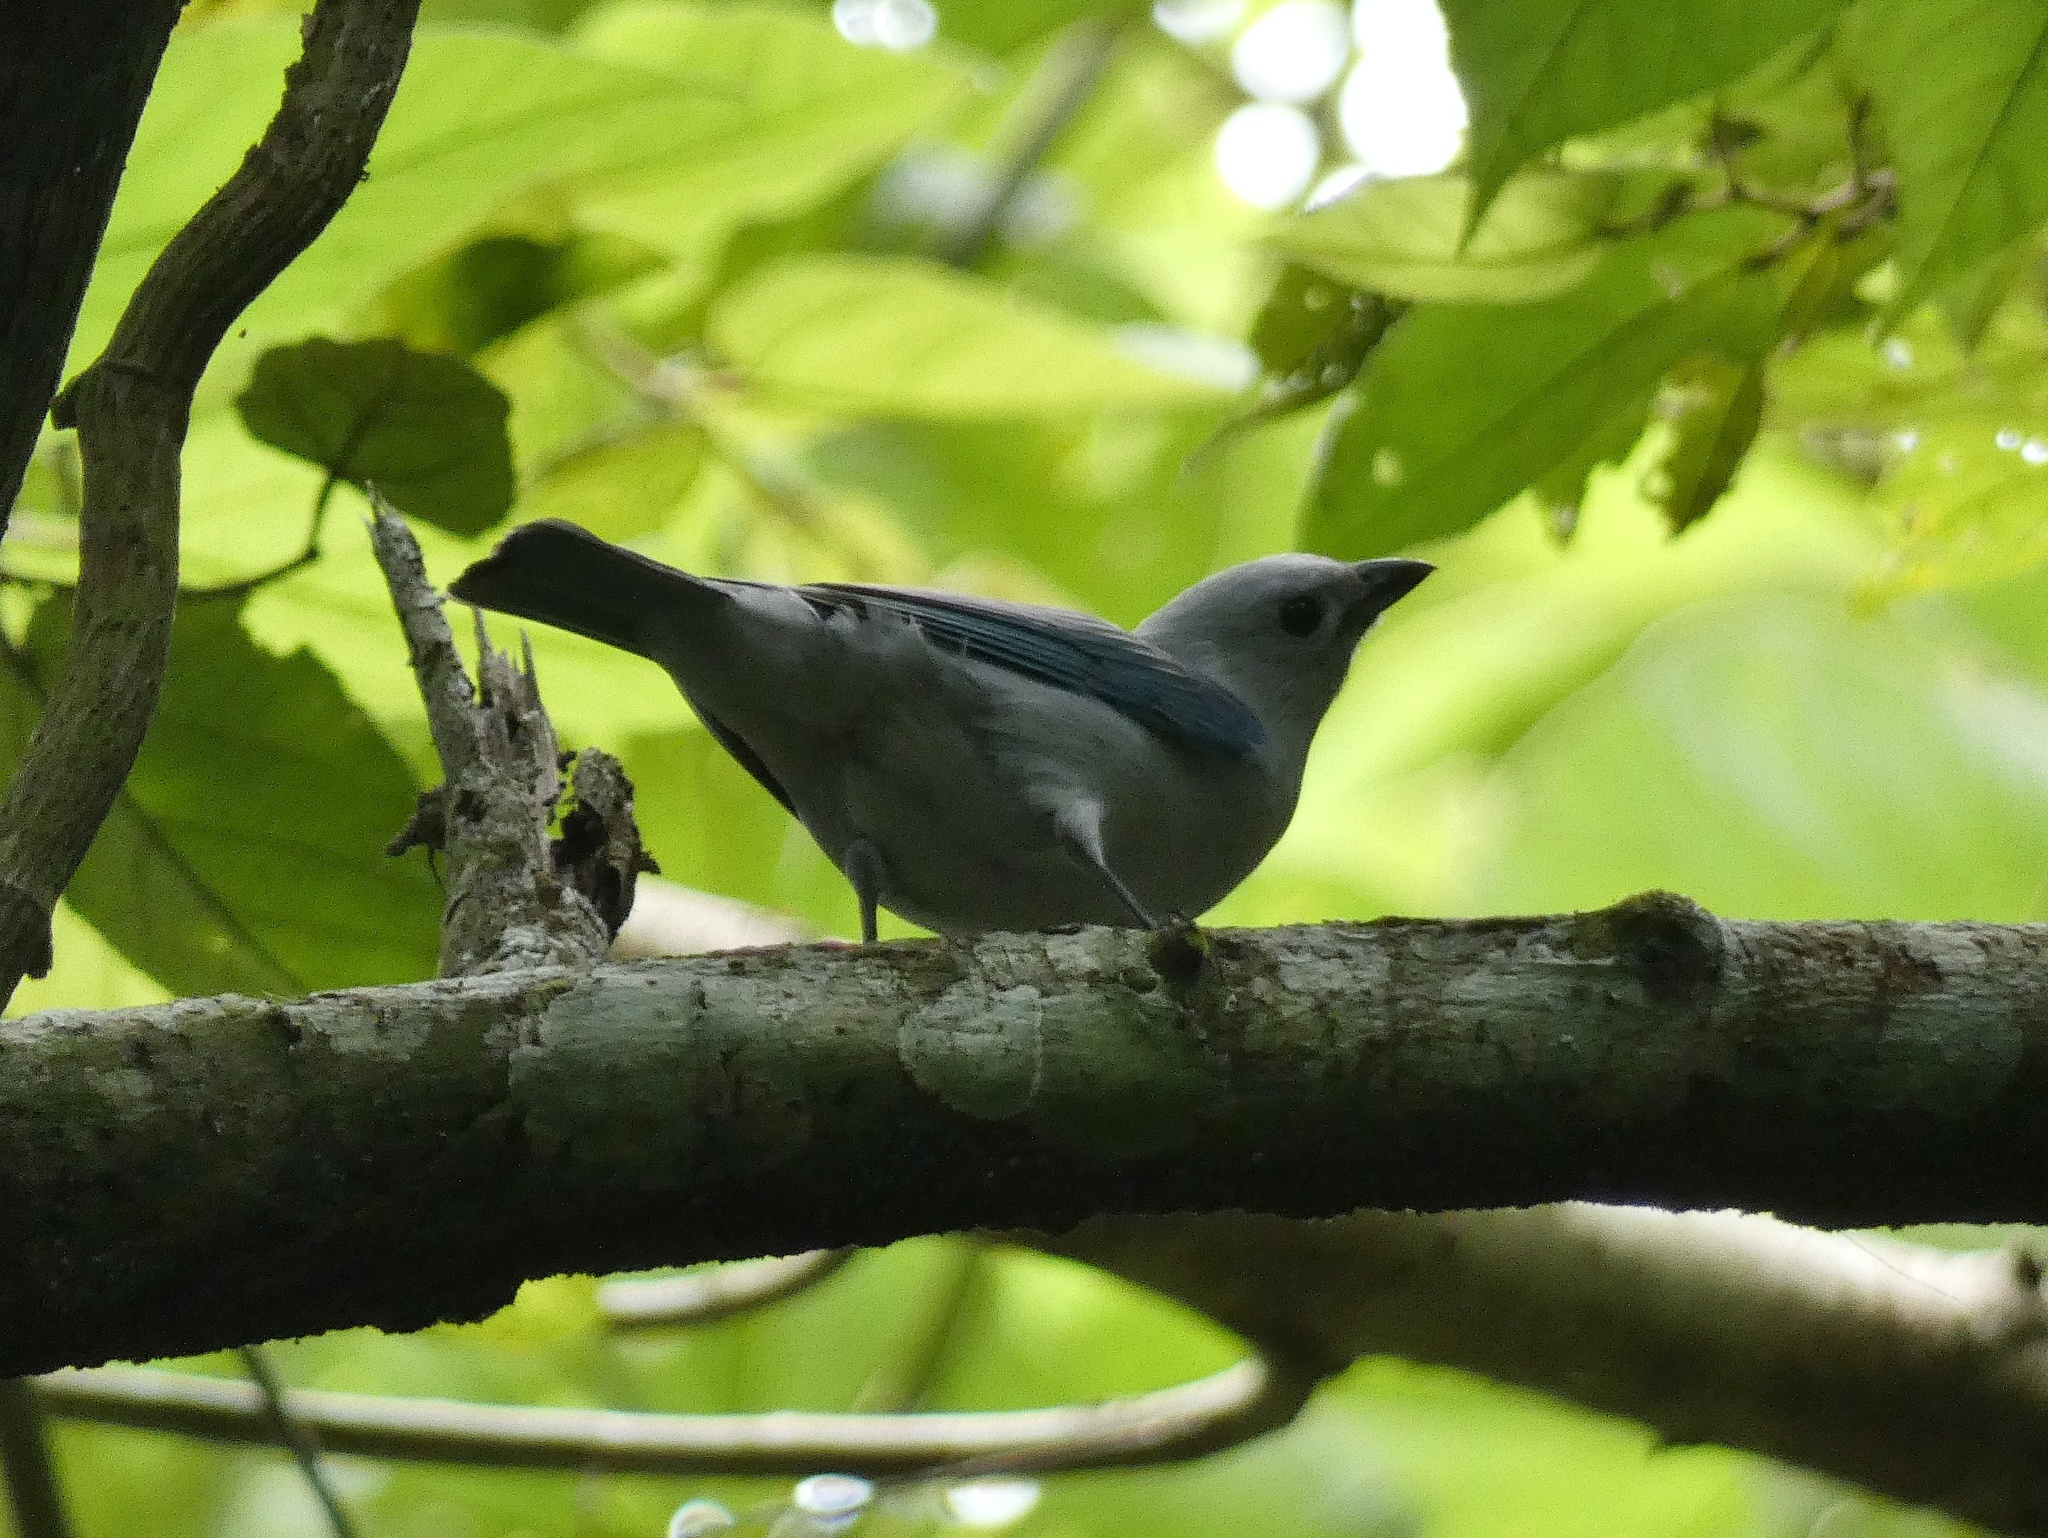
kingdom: Animalia
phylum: Chordata
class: Aves
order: Passeriformes
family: Thraupidae
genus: Thraupis
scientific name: Thraupis episcopus
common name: Blue-grey tanager
